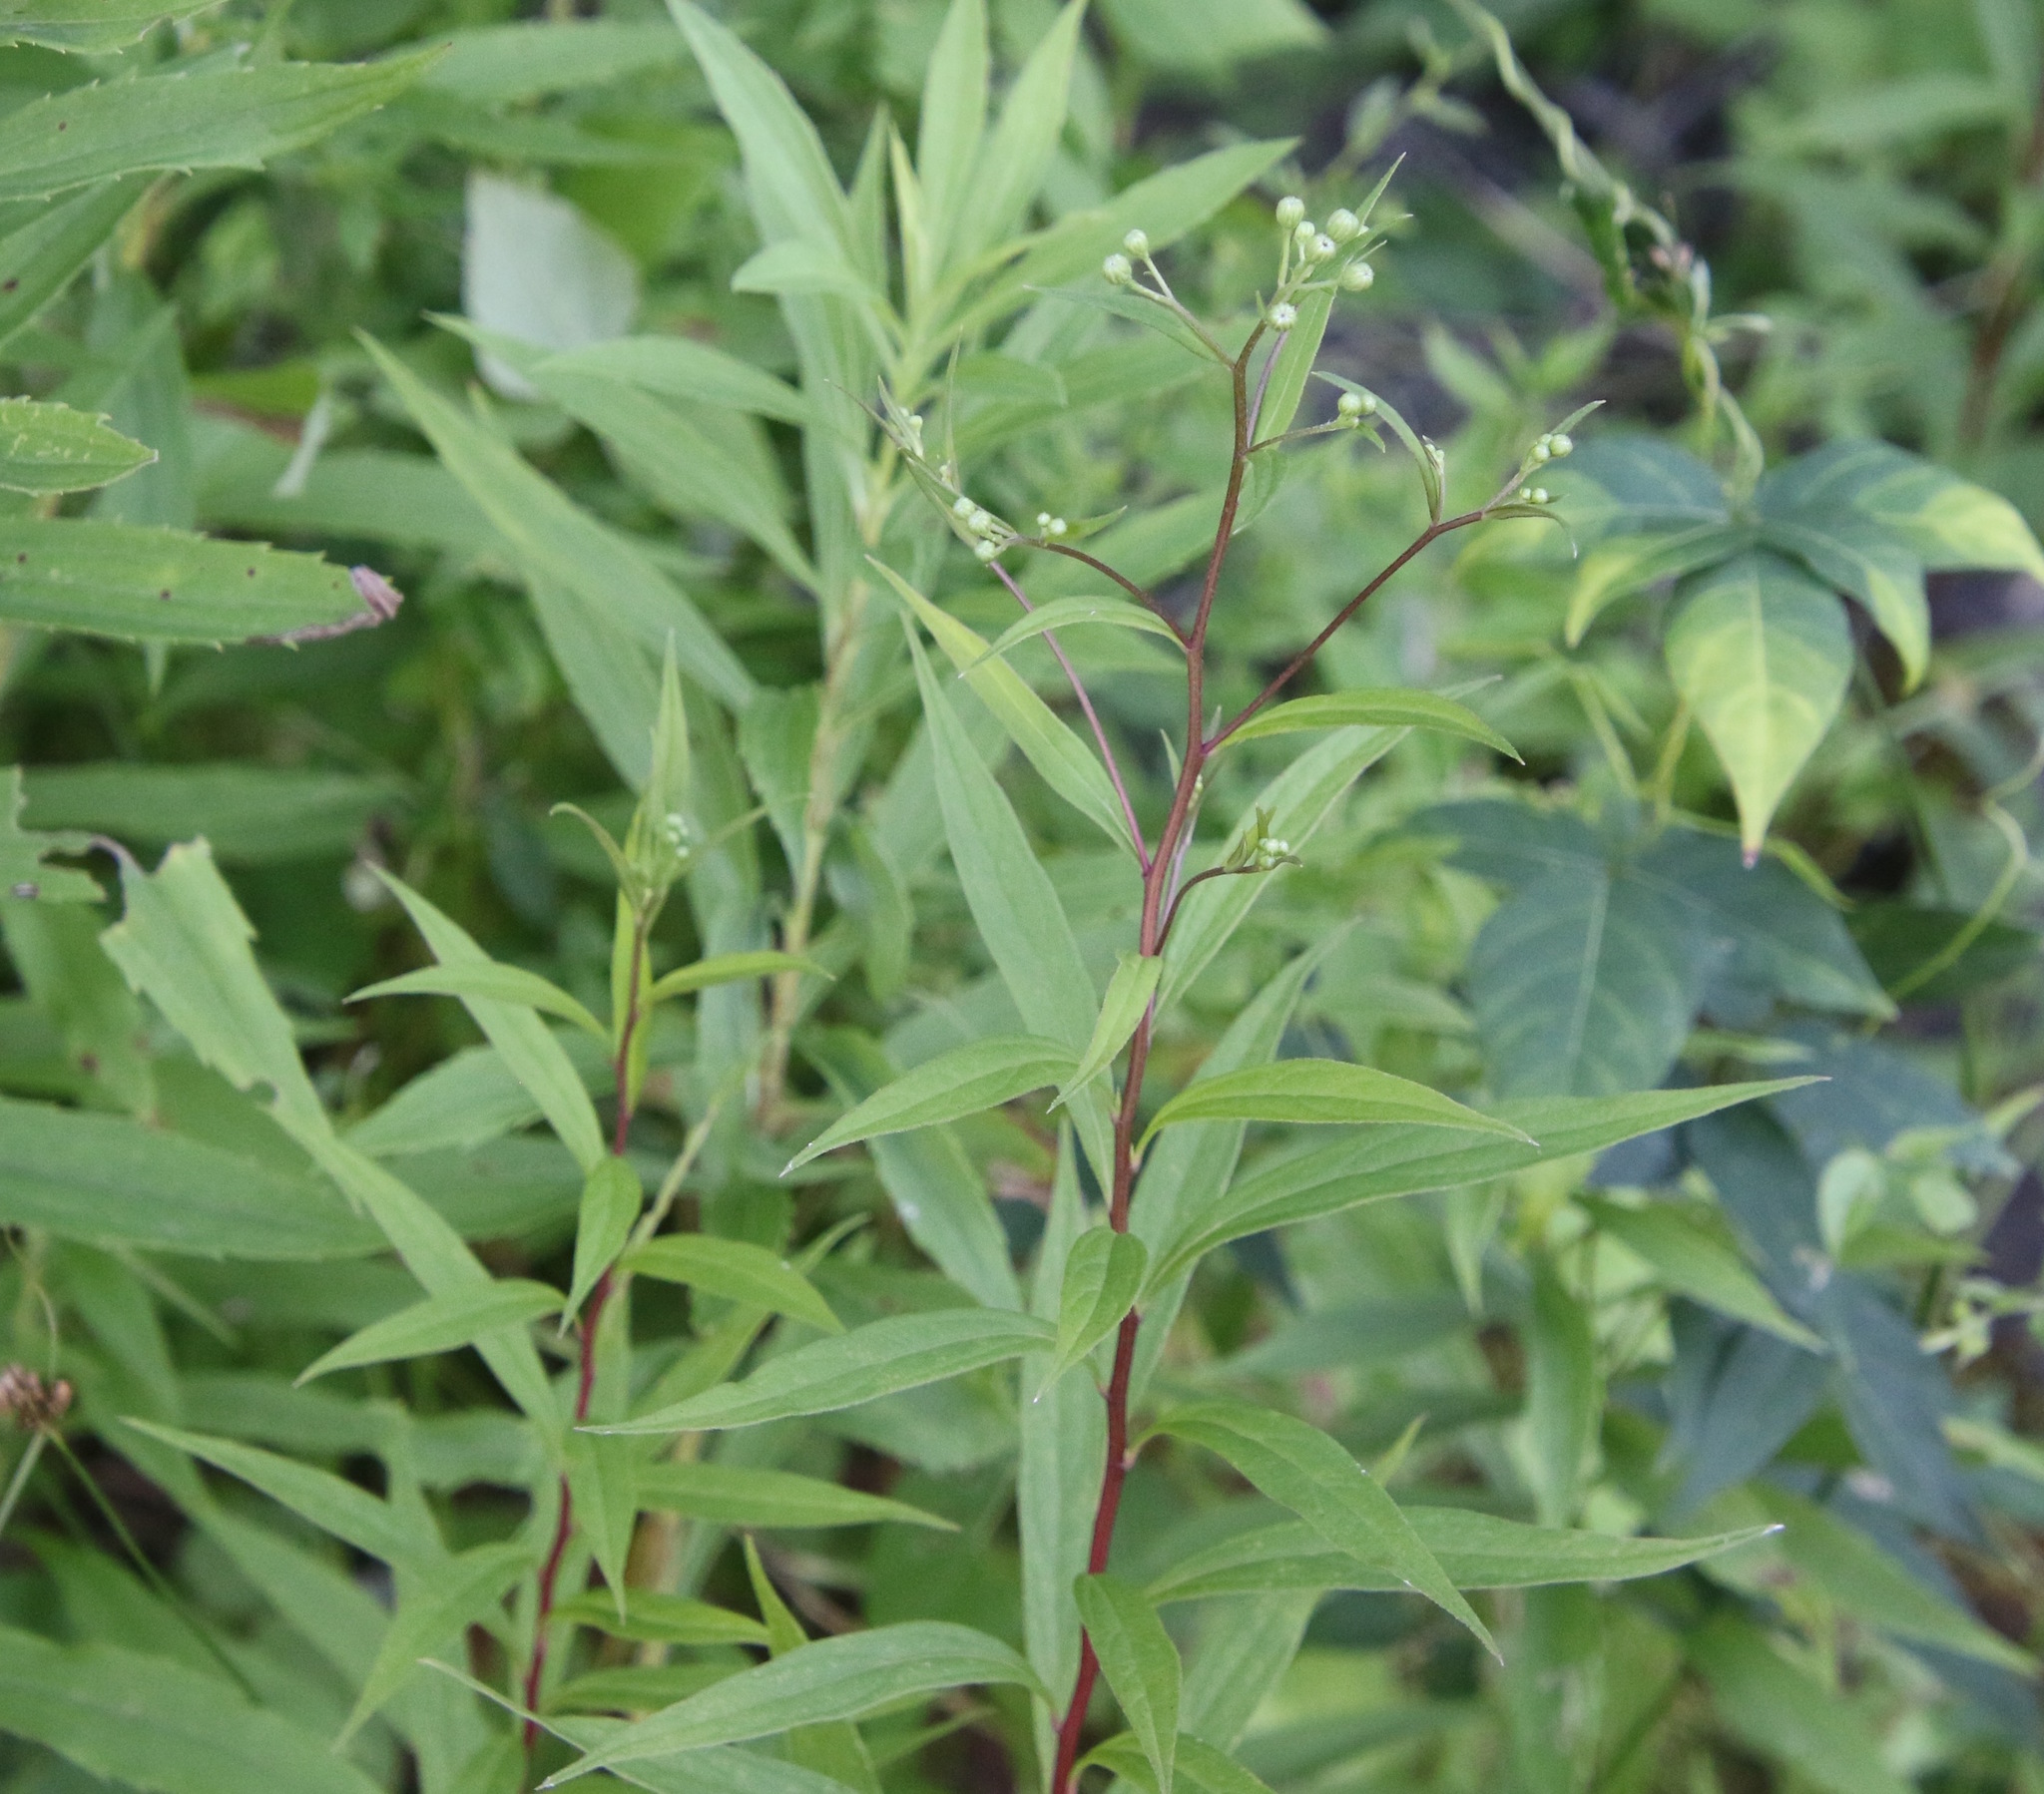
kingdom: Plantae
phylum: Tracheophyta
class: Magnoliopsida
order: Asterales
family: Asteraceae
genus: Doellingeria
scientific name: Doellingeria umbellata
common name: Flat-top white aster
